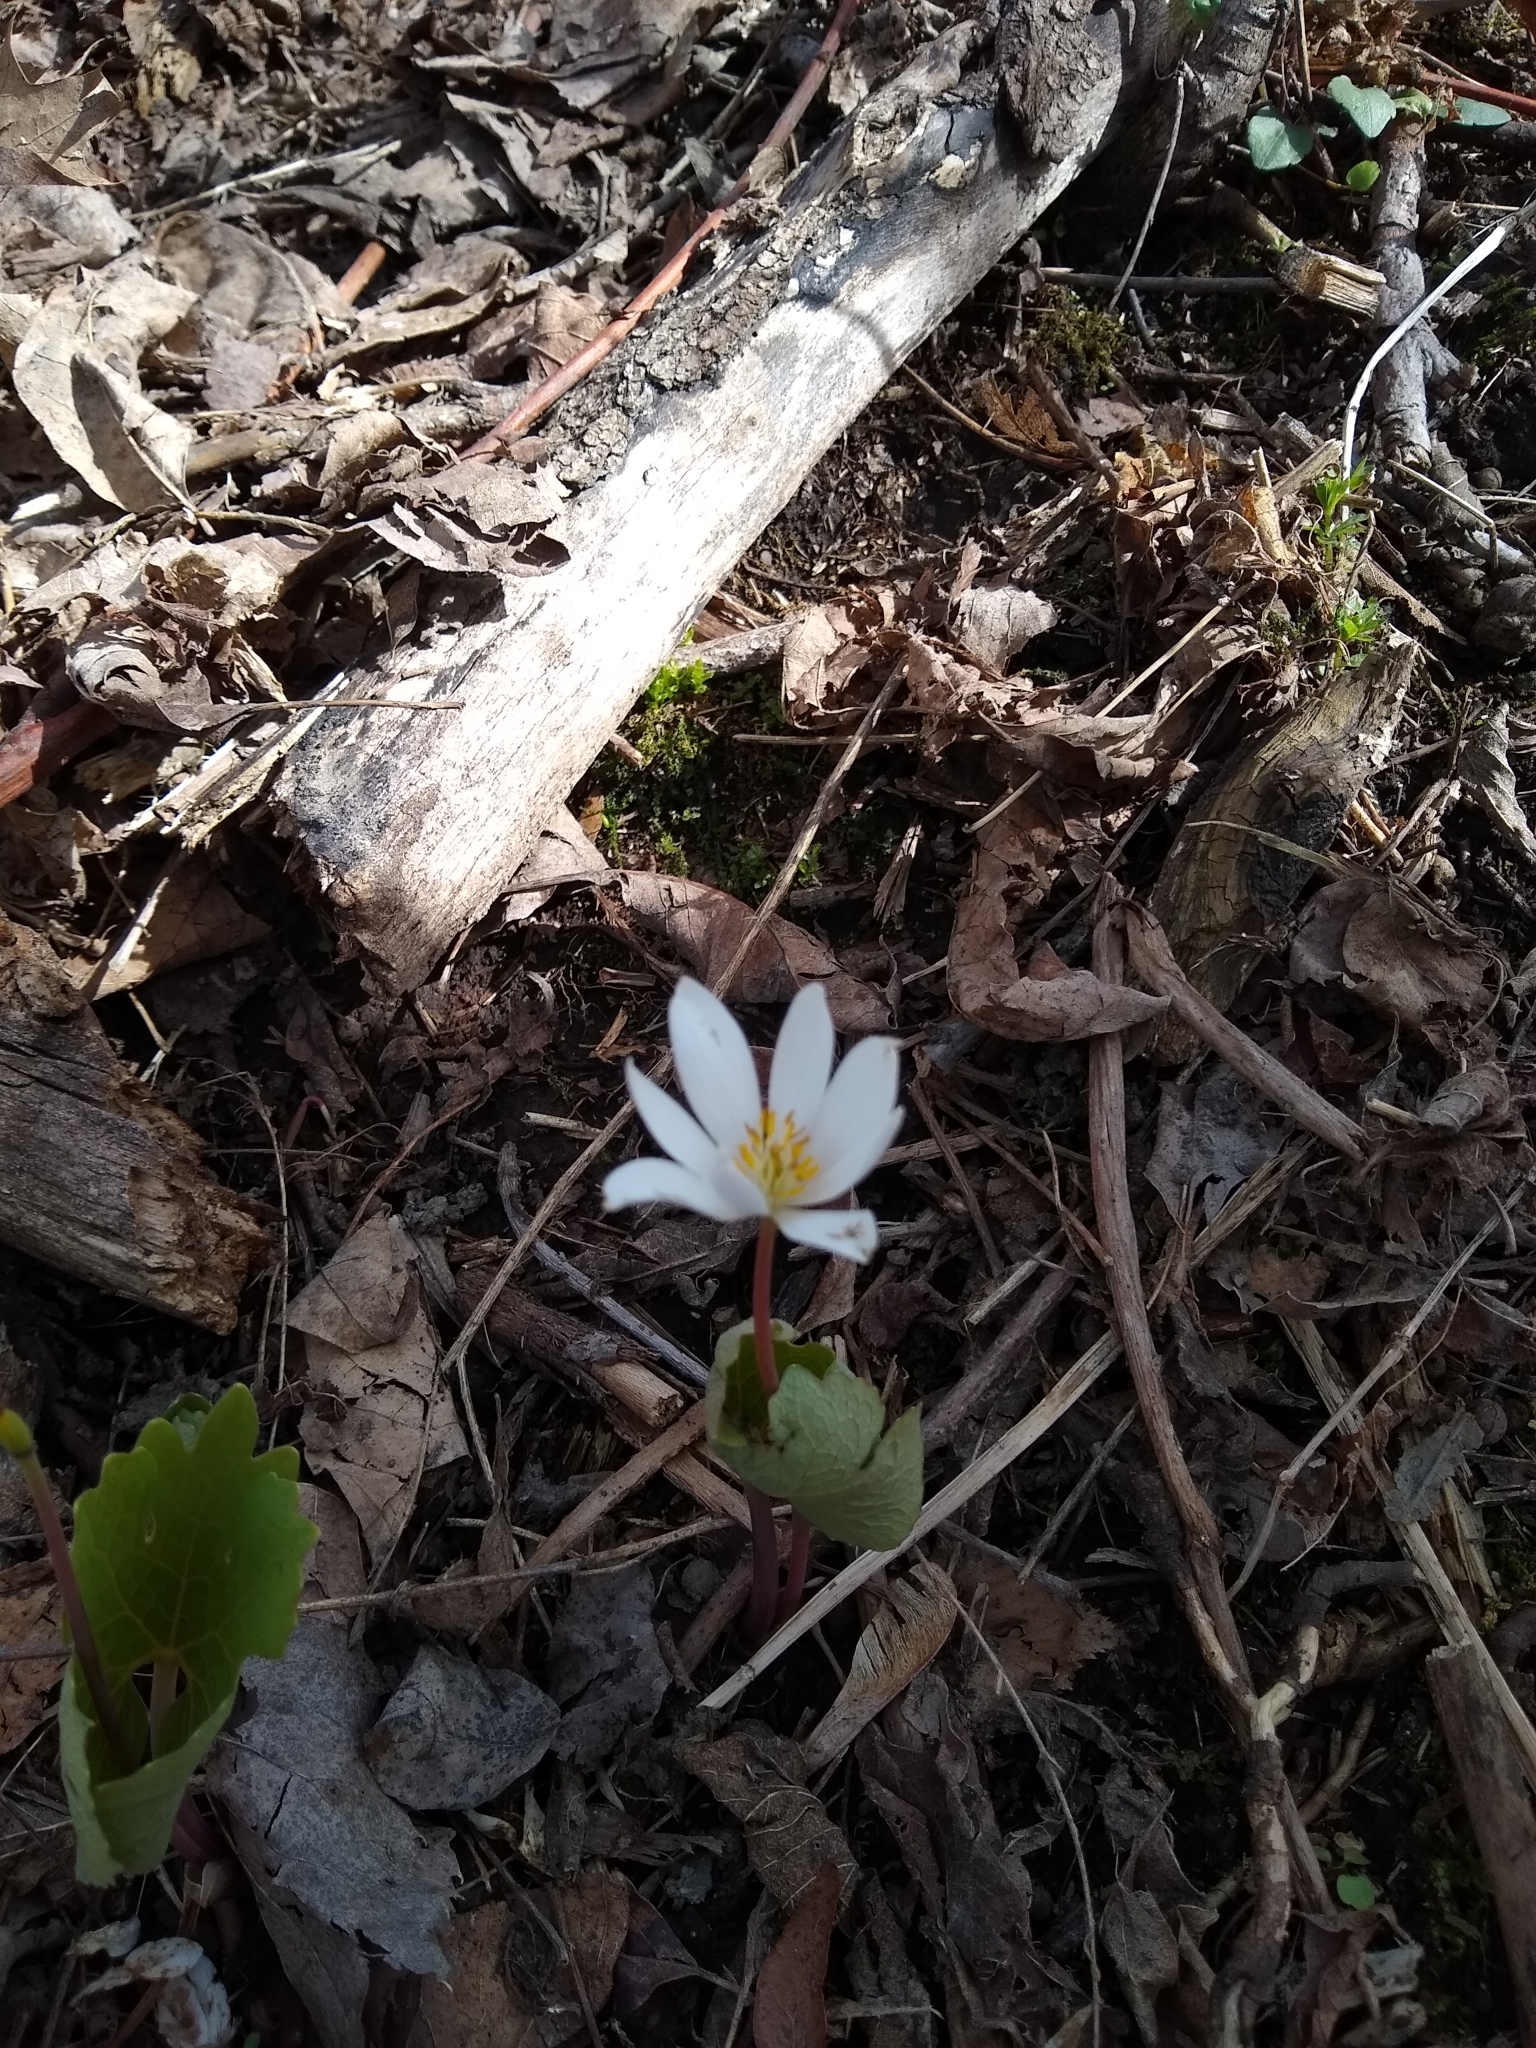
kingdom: Plantae
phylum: Tracheophyta
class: Magnoliopsida
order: Ranunculales
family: Papaveraceae
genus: Sanguinaria
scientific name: Sanguinaria canadensis
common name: Bloodroot
